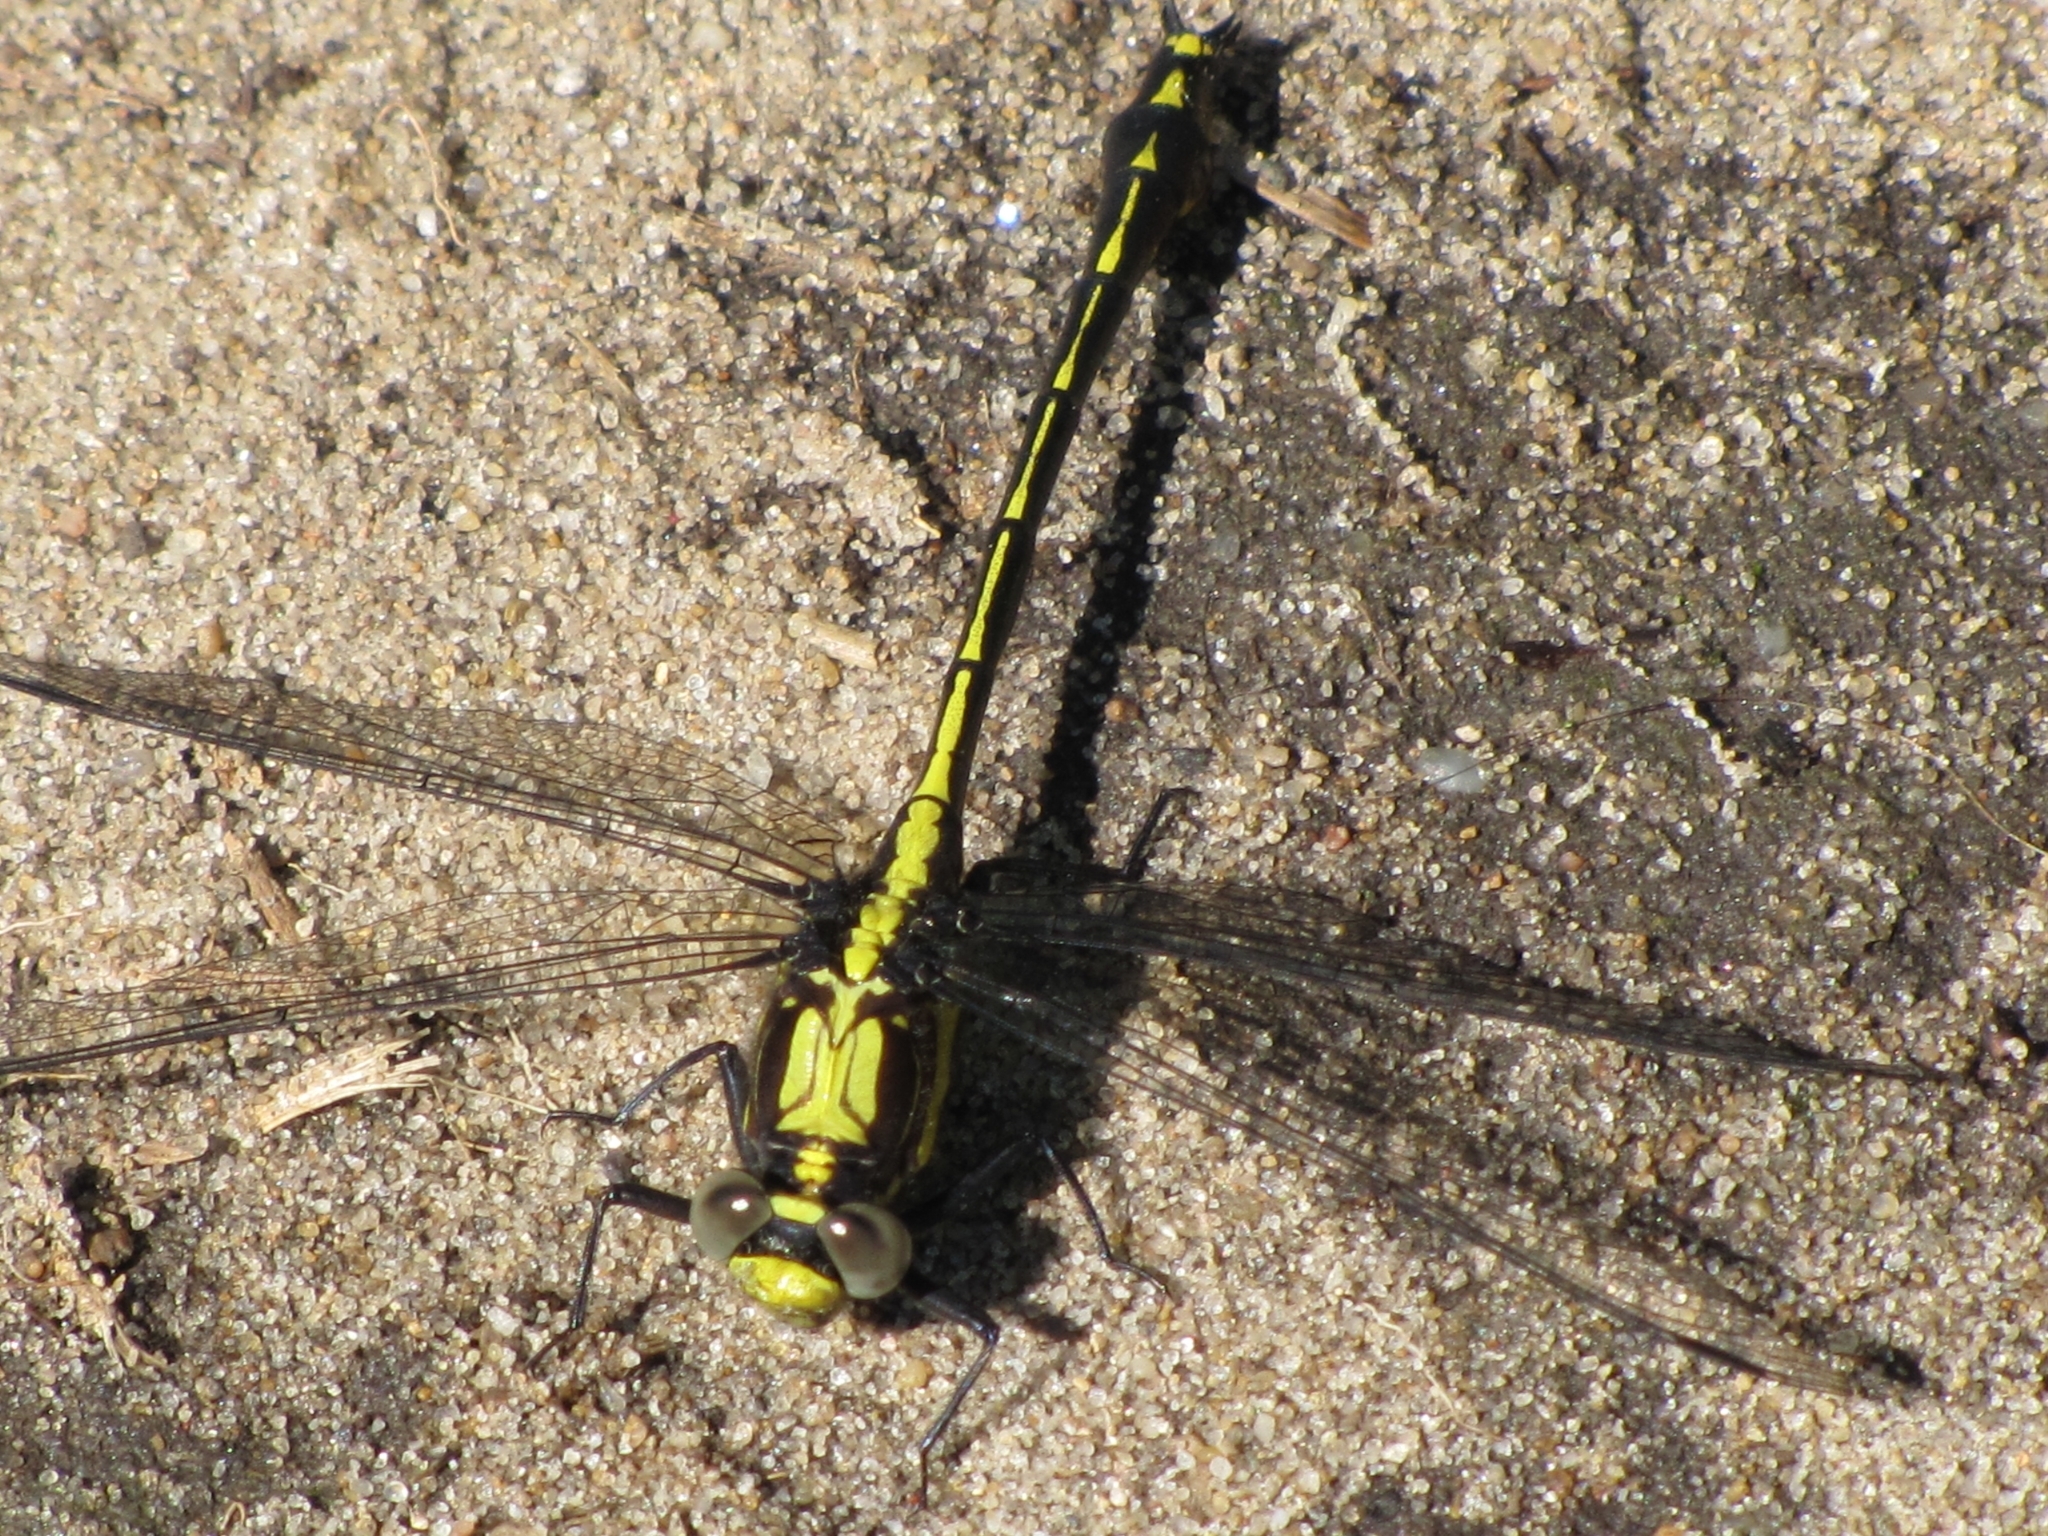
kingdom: Animalia
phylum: Arthropoda
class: Insecta
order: Odonata
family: Gomphidae
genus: Dromogomphus
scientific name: Dromogomphus spinosus
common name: Black-shouldered spinyleg
